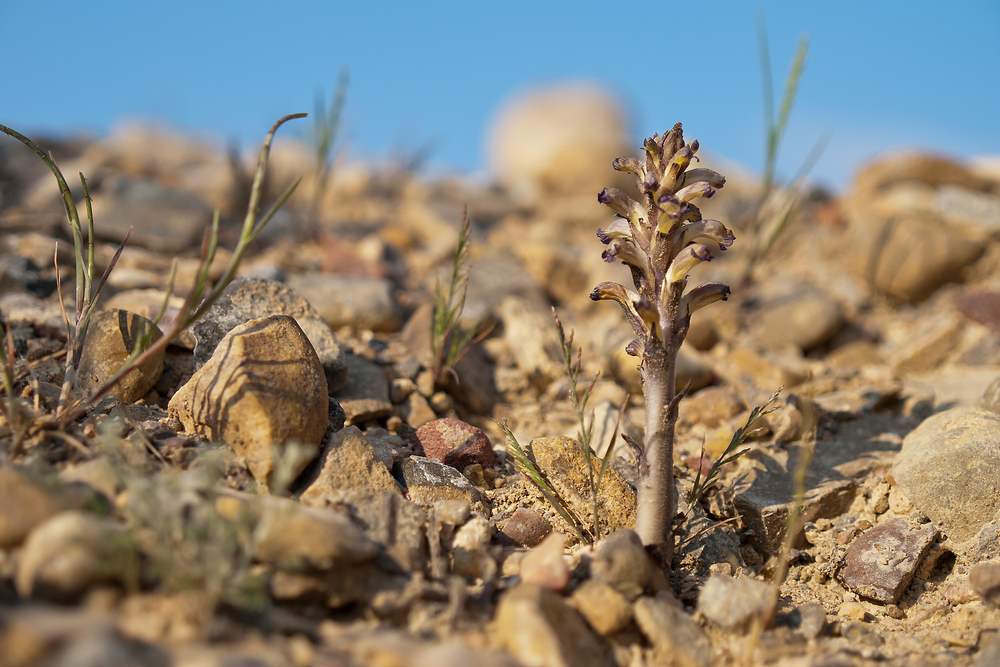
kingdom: Plantae
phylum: Tracheophyta
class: Magnoliopsida
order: Lamiales
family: Orobanchaceae
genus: Orobanche
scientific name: Orobanche cernua
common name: Australian broomrape
